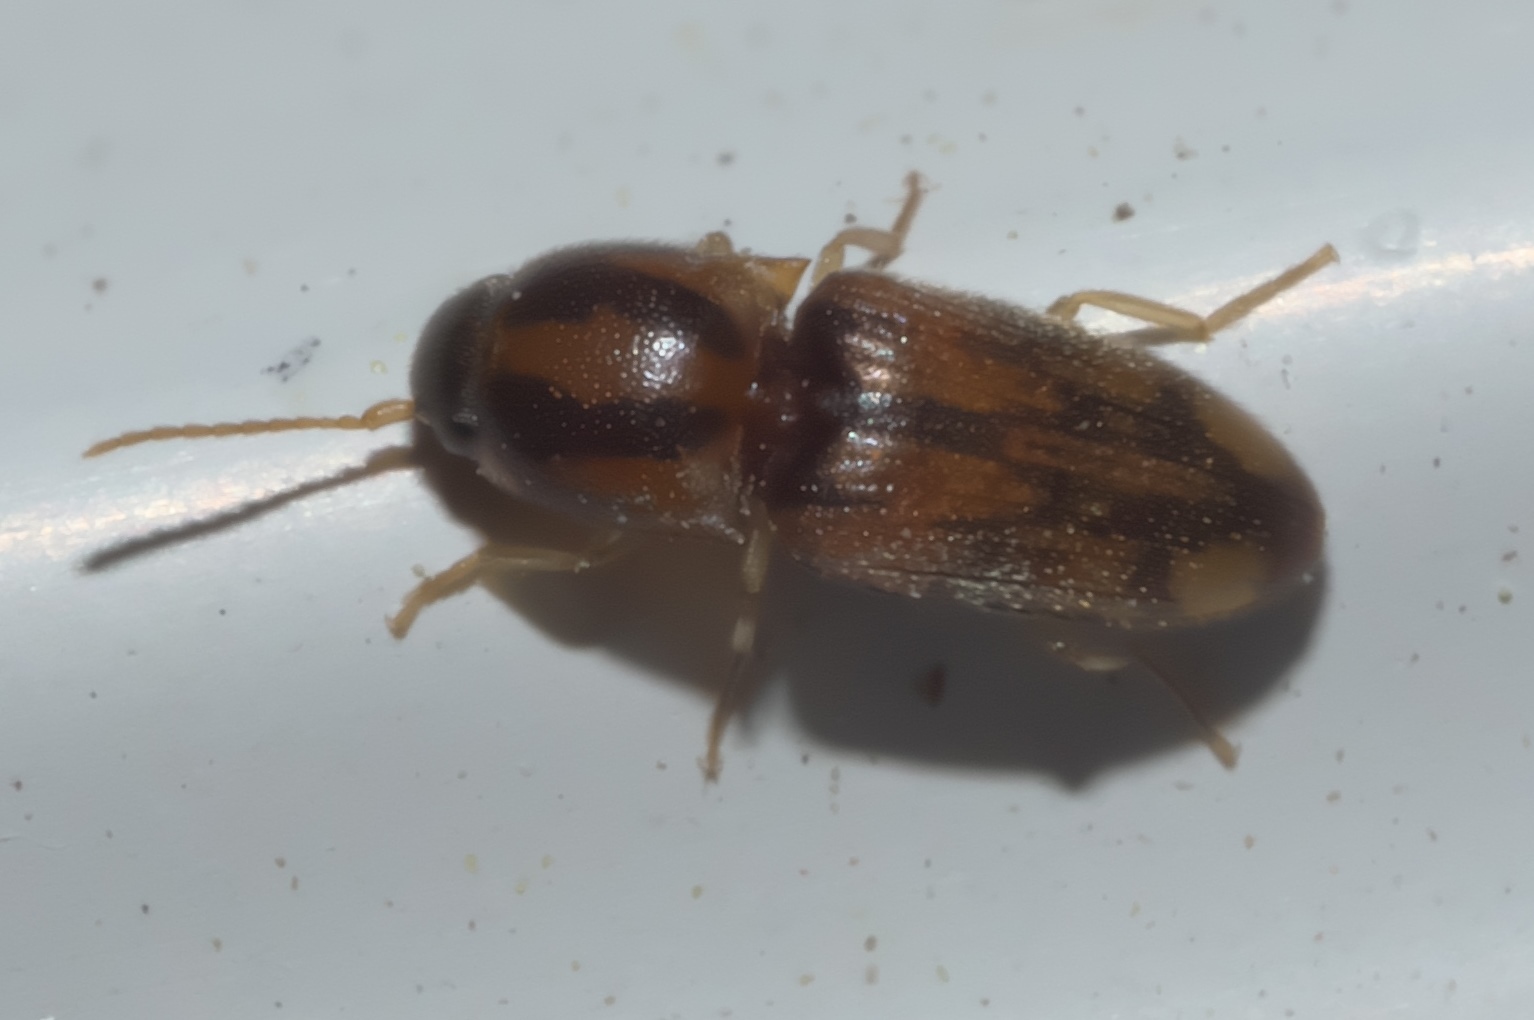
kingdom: Animalia
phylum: Arthropoda
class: Insecta
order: Coleoptera
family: Elateridae
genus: Monocrepidius
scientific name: Monocrepidius bellus
